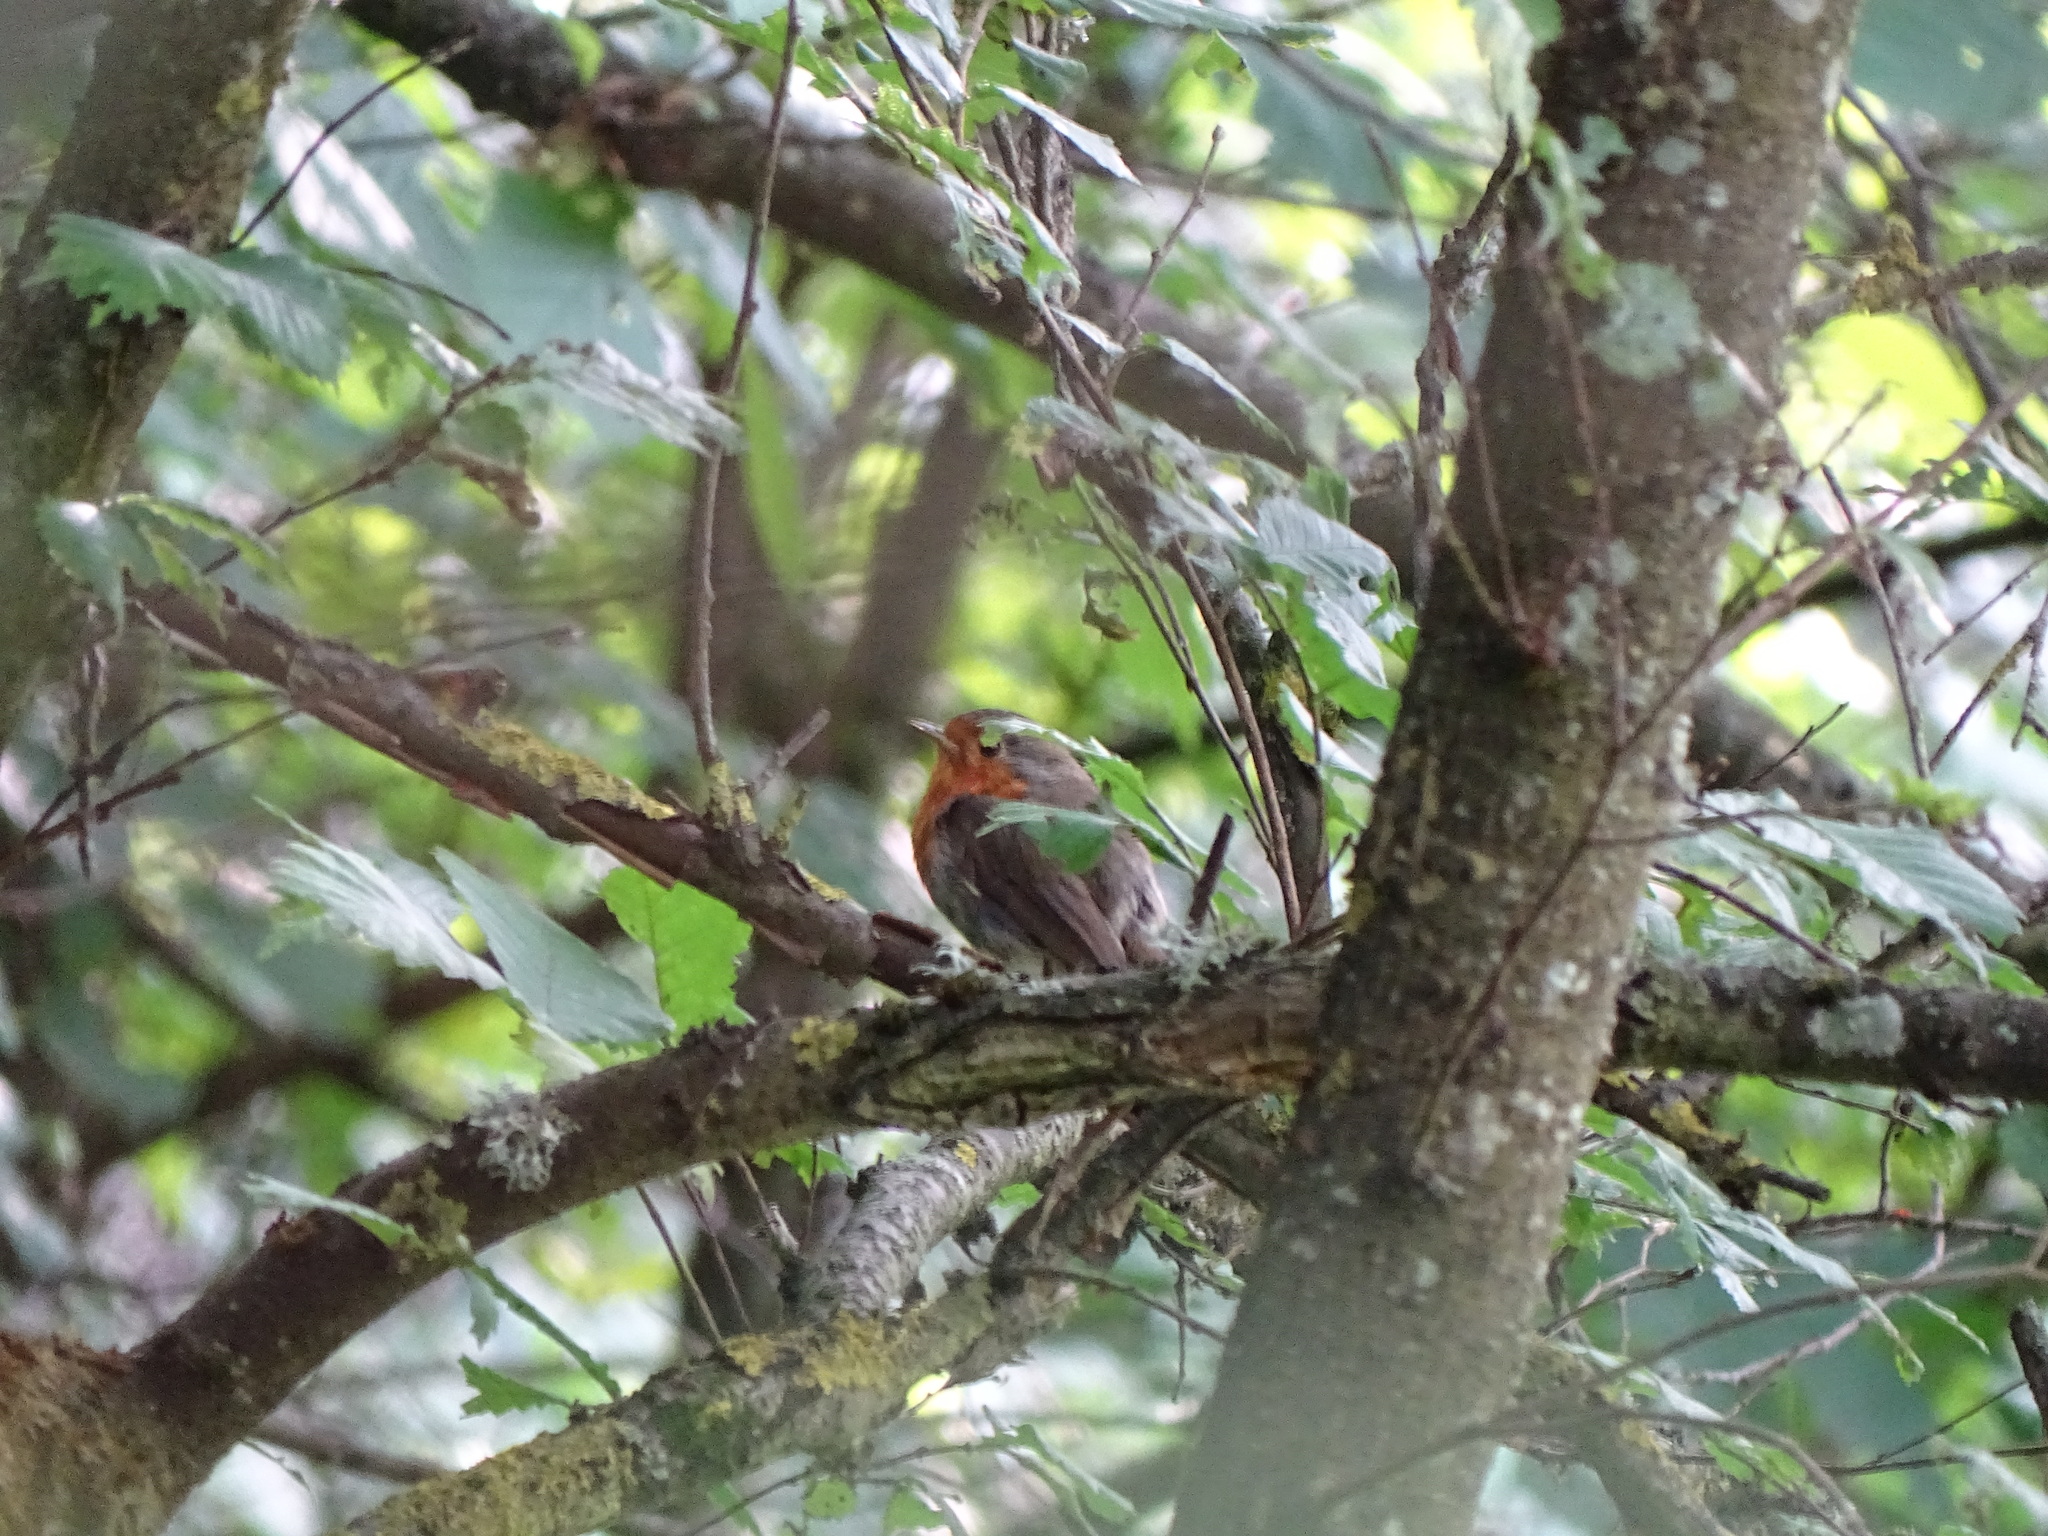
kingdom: Animalia
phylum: Chordata
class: Aves
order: Passeriformes
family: Muscicapidae
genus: Erithacus
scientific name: Erithacus rubecula
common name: European robin
